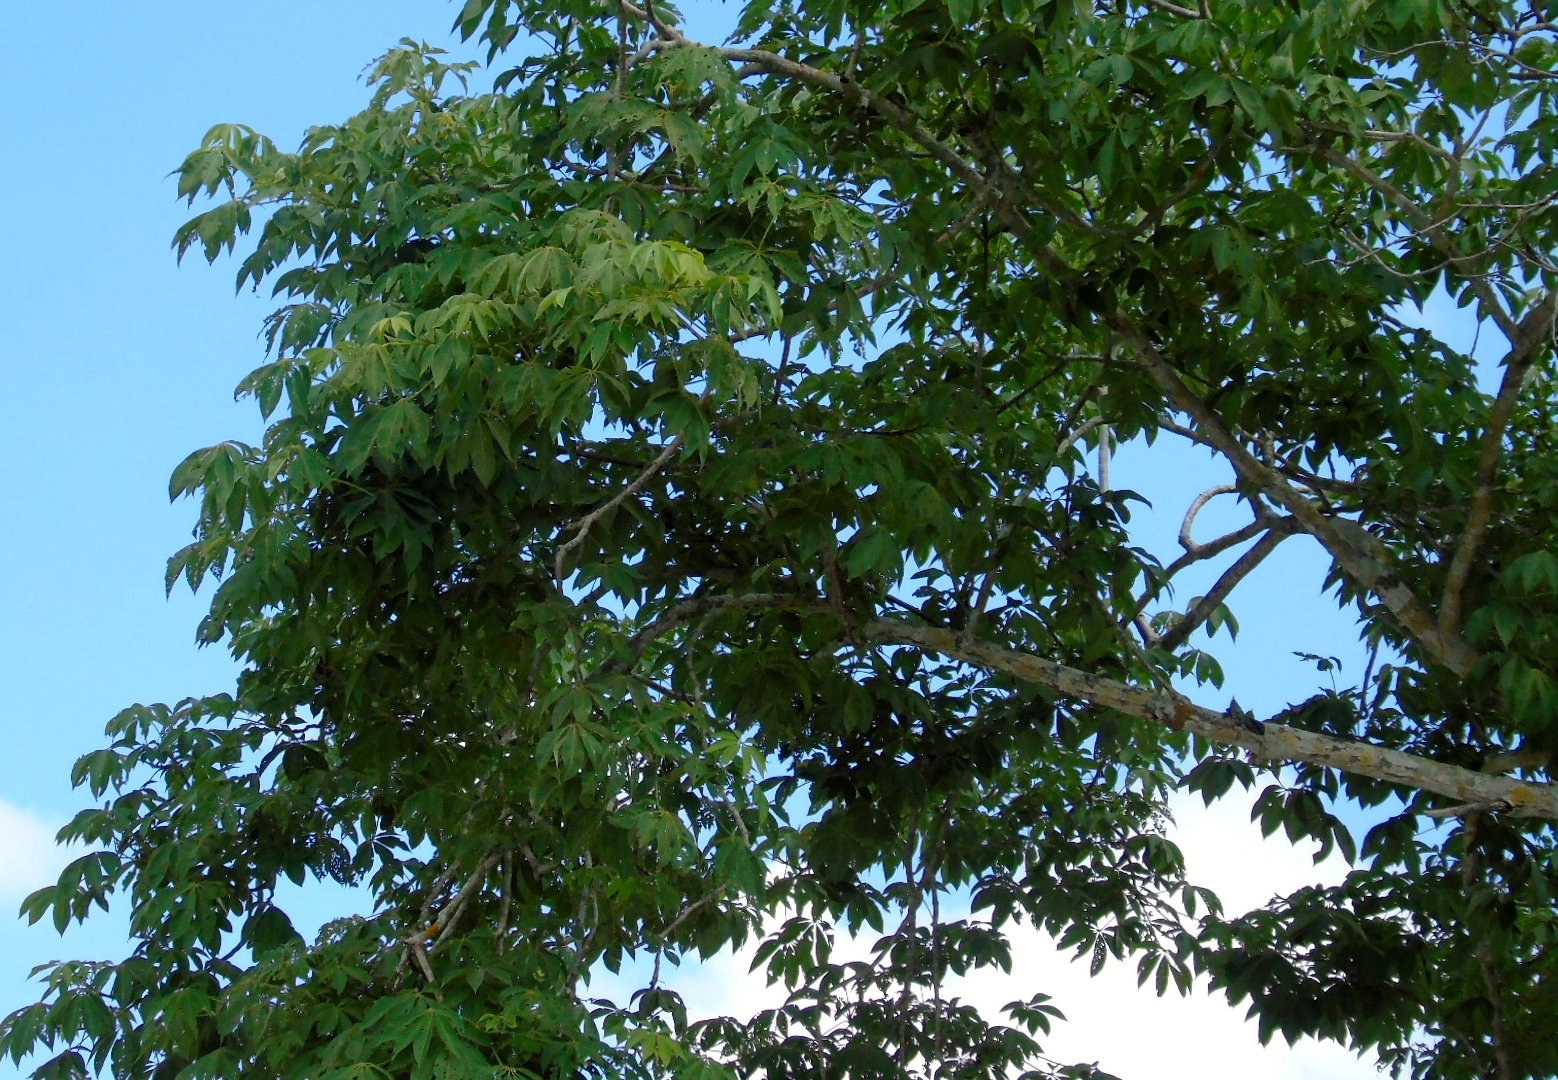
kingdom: Plantae
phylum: Tracheophyta
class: Magnoliopsida
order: Malvales
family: Malvaceae
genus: Ceiba
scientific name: Ceiba aesculifolia
